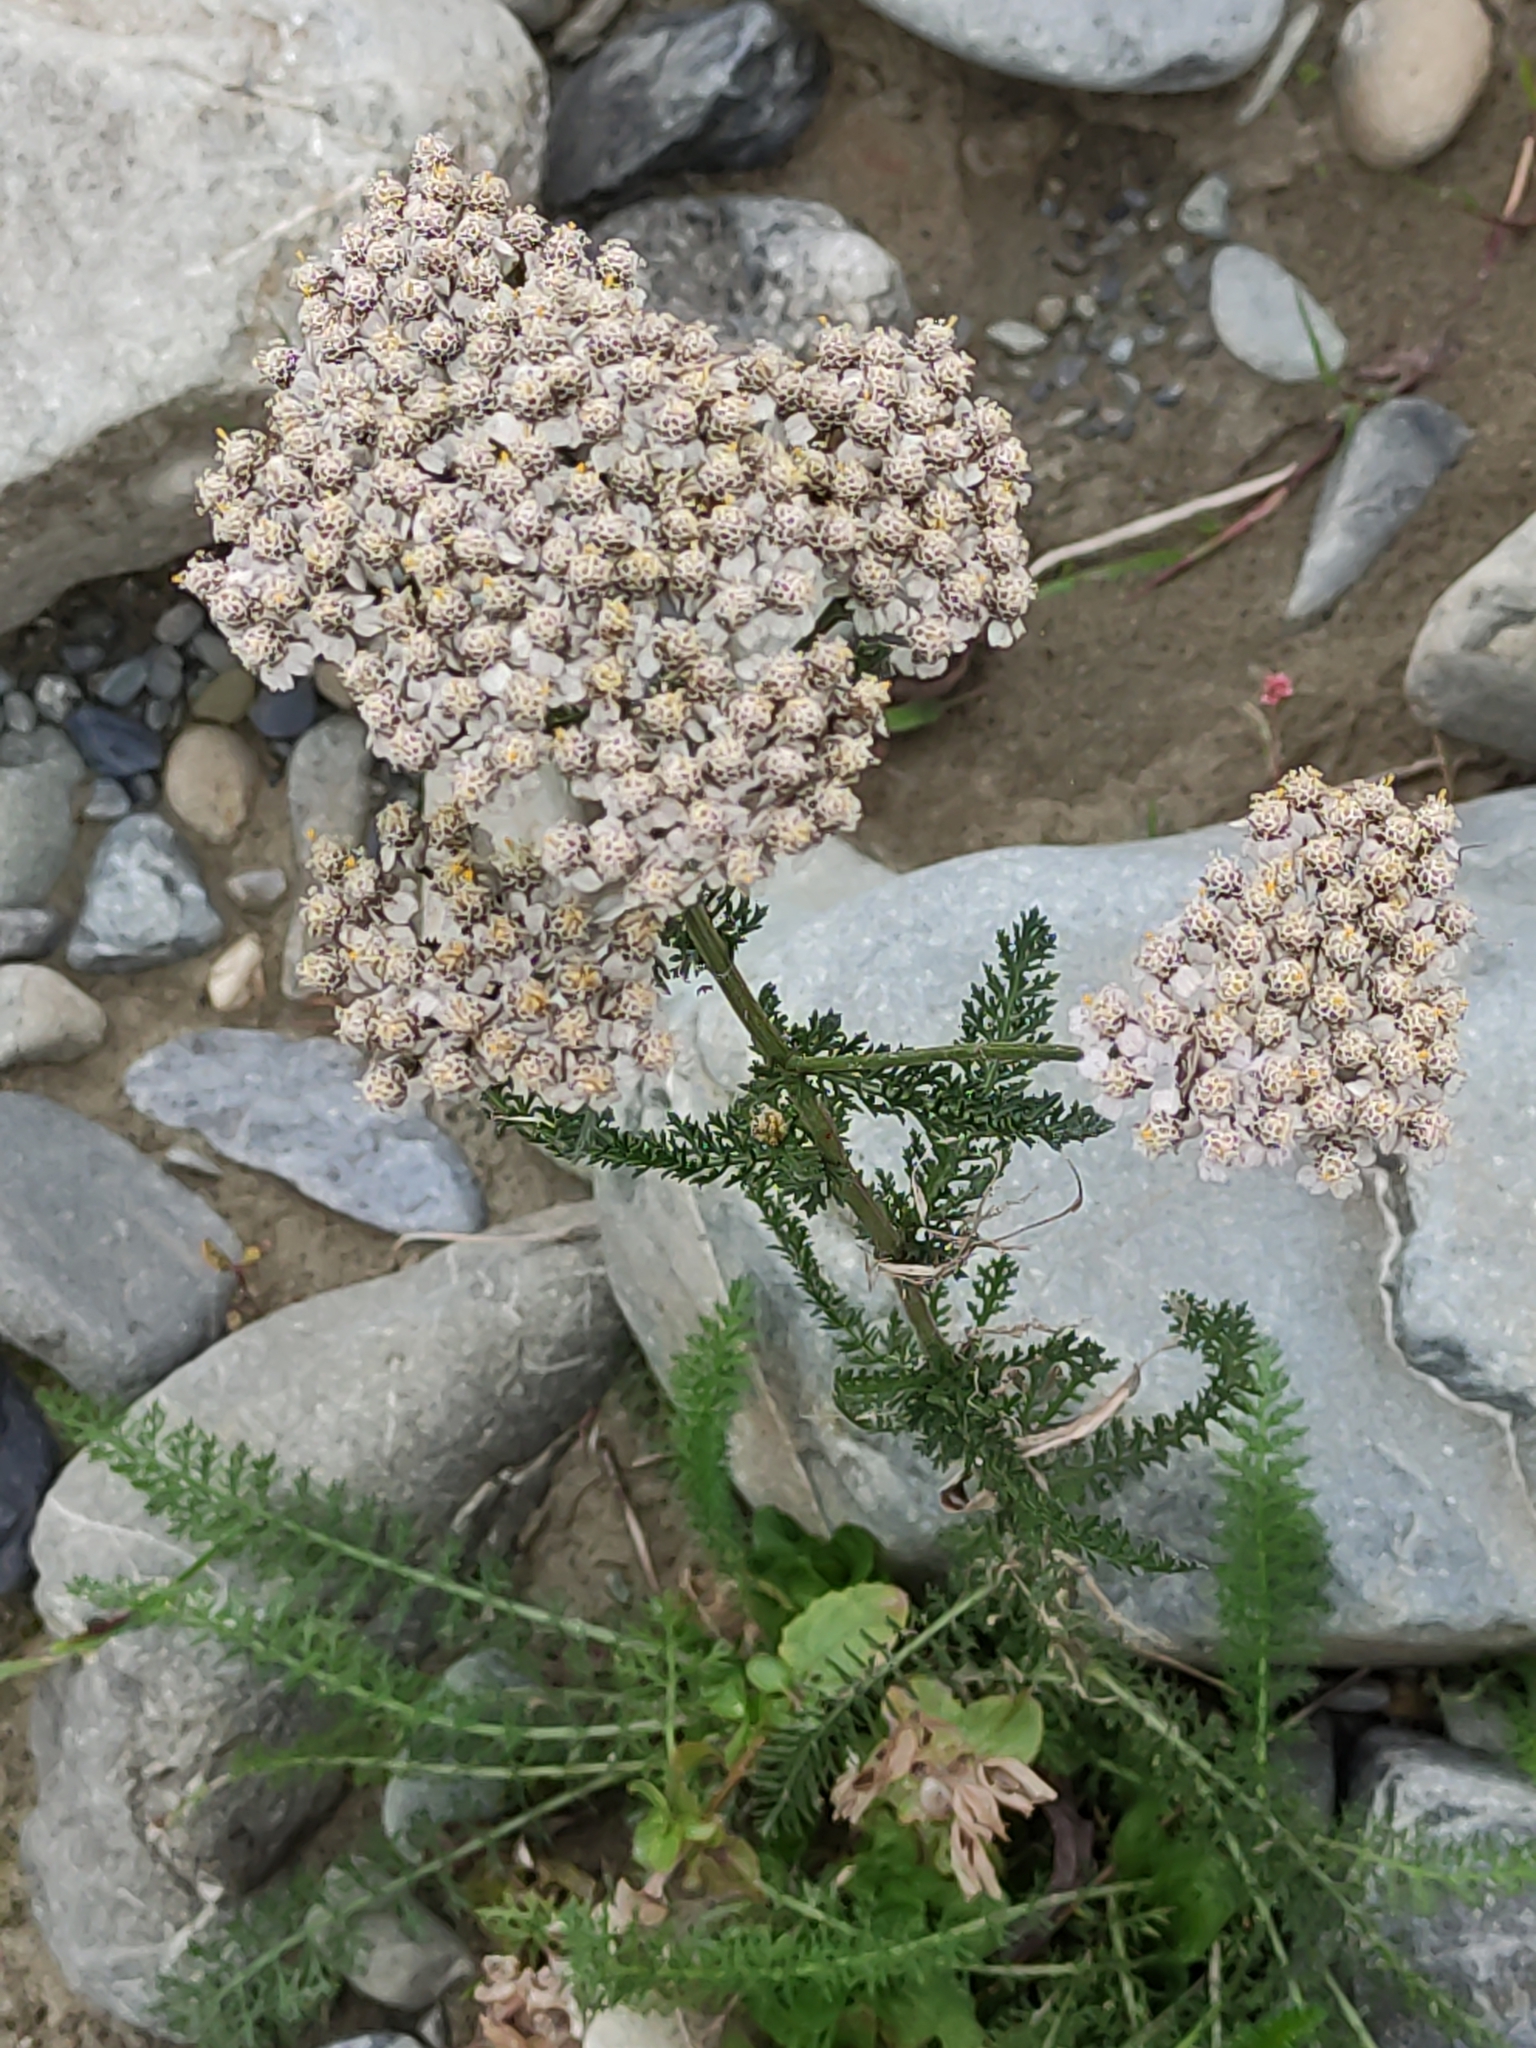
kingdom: Plantae
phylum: Tracheophyta
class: Magnoliopsida
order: Asterales
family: Asteraceae
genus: Achillea
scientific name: Achillea millefolium
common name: Yarrow
